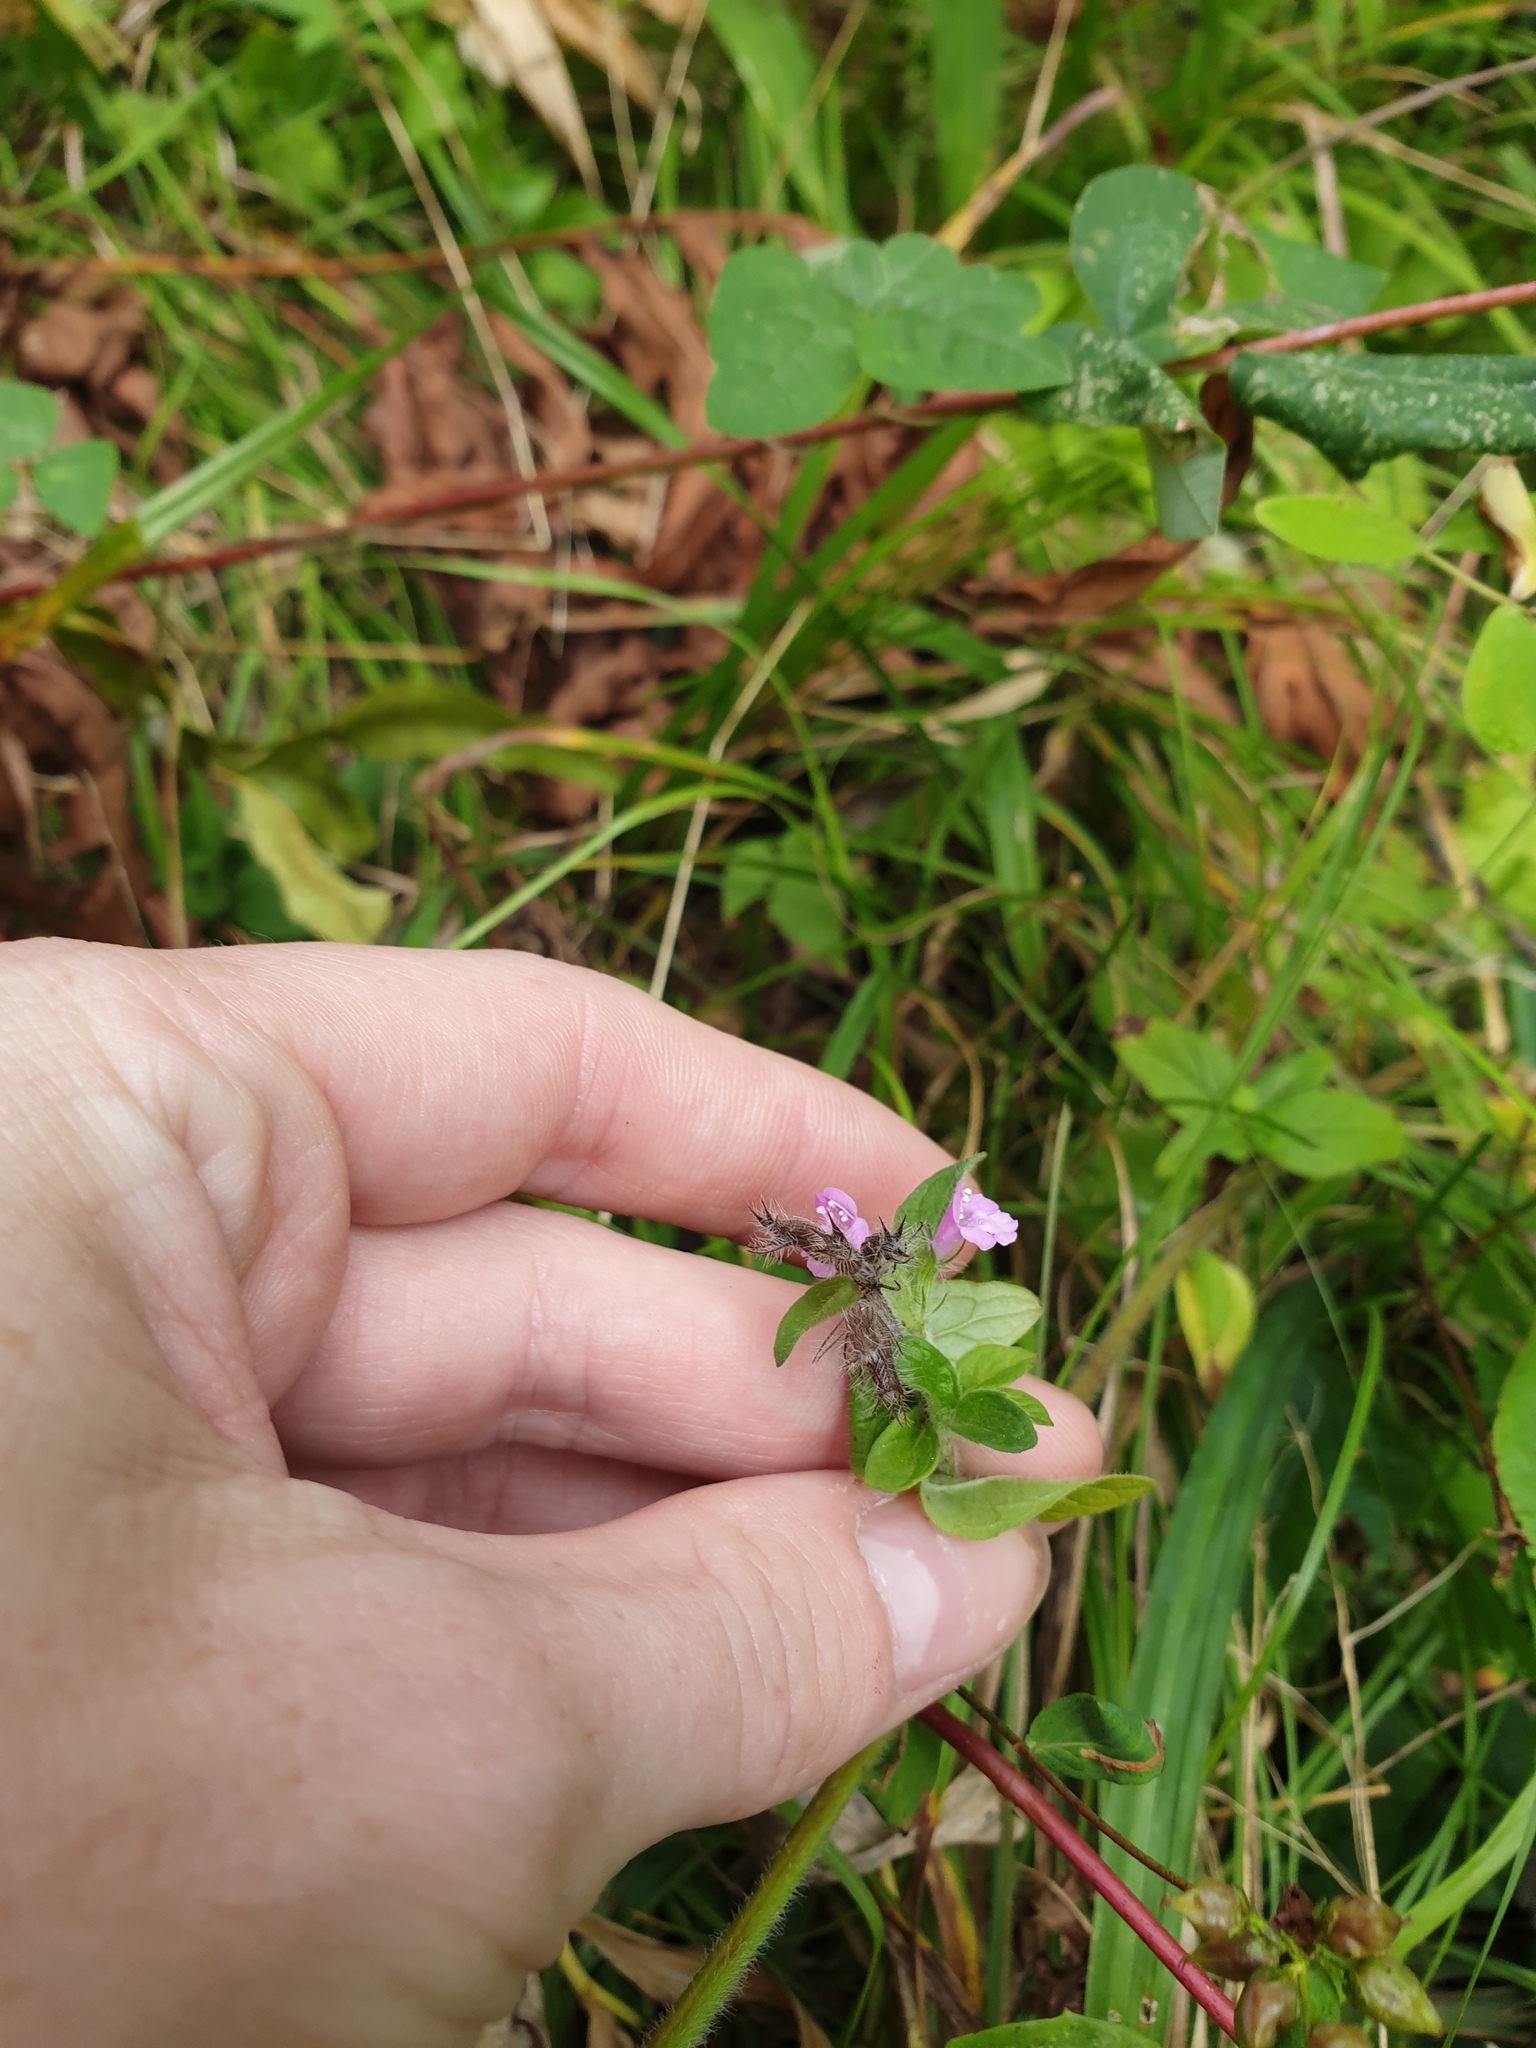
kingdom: Plantae
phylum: Tracheophyta
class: Magnoliopsida
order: Lamiales
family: Lamiaceae
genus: Clinopodium
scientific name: Clinopodium vulgare
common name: Wild basil
